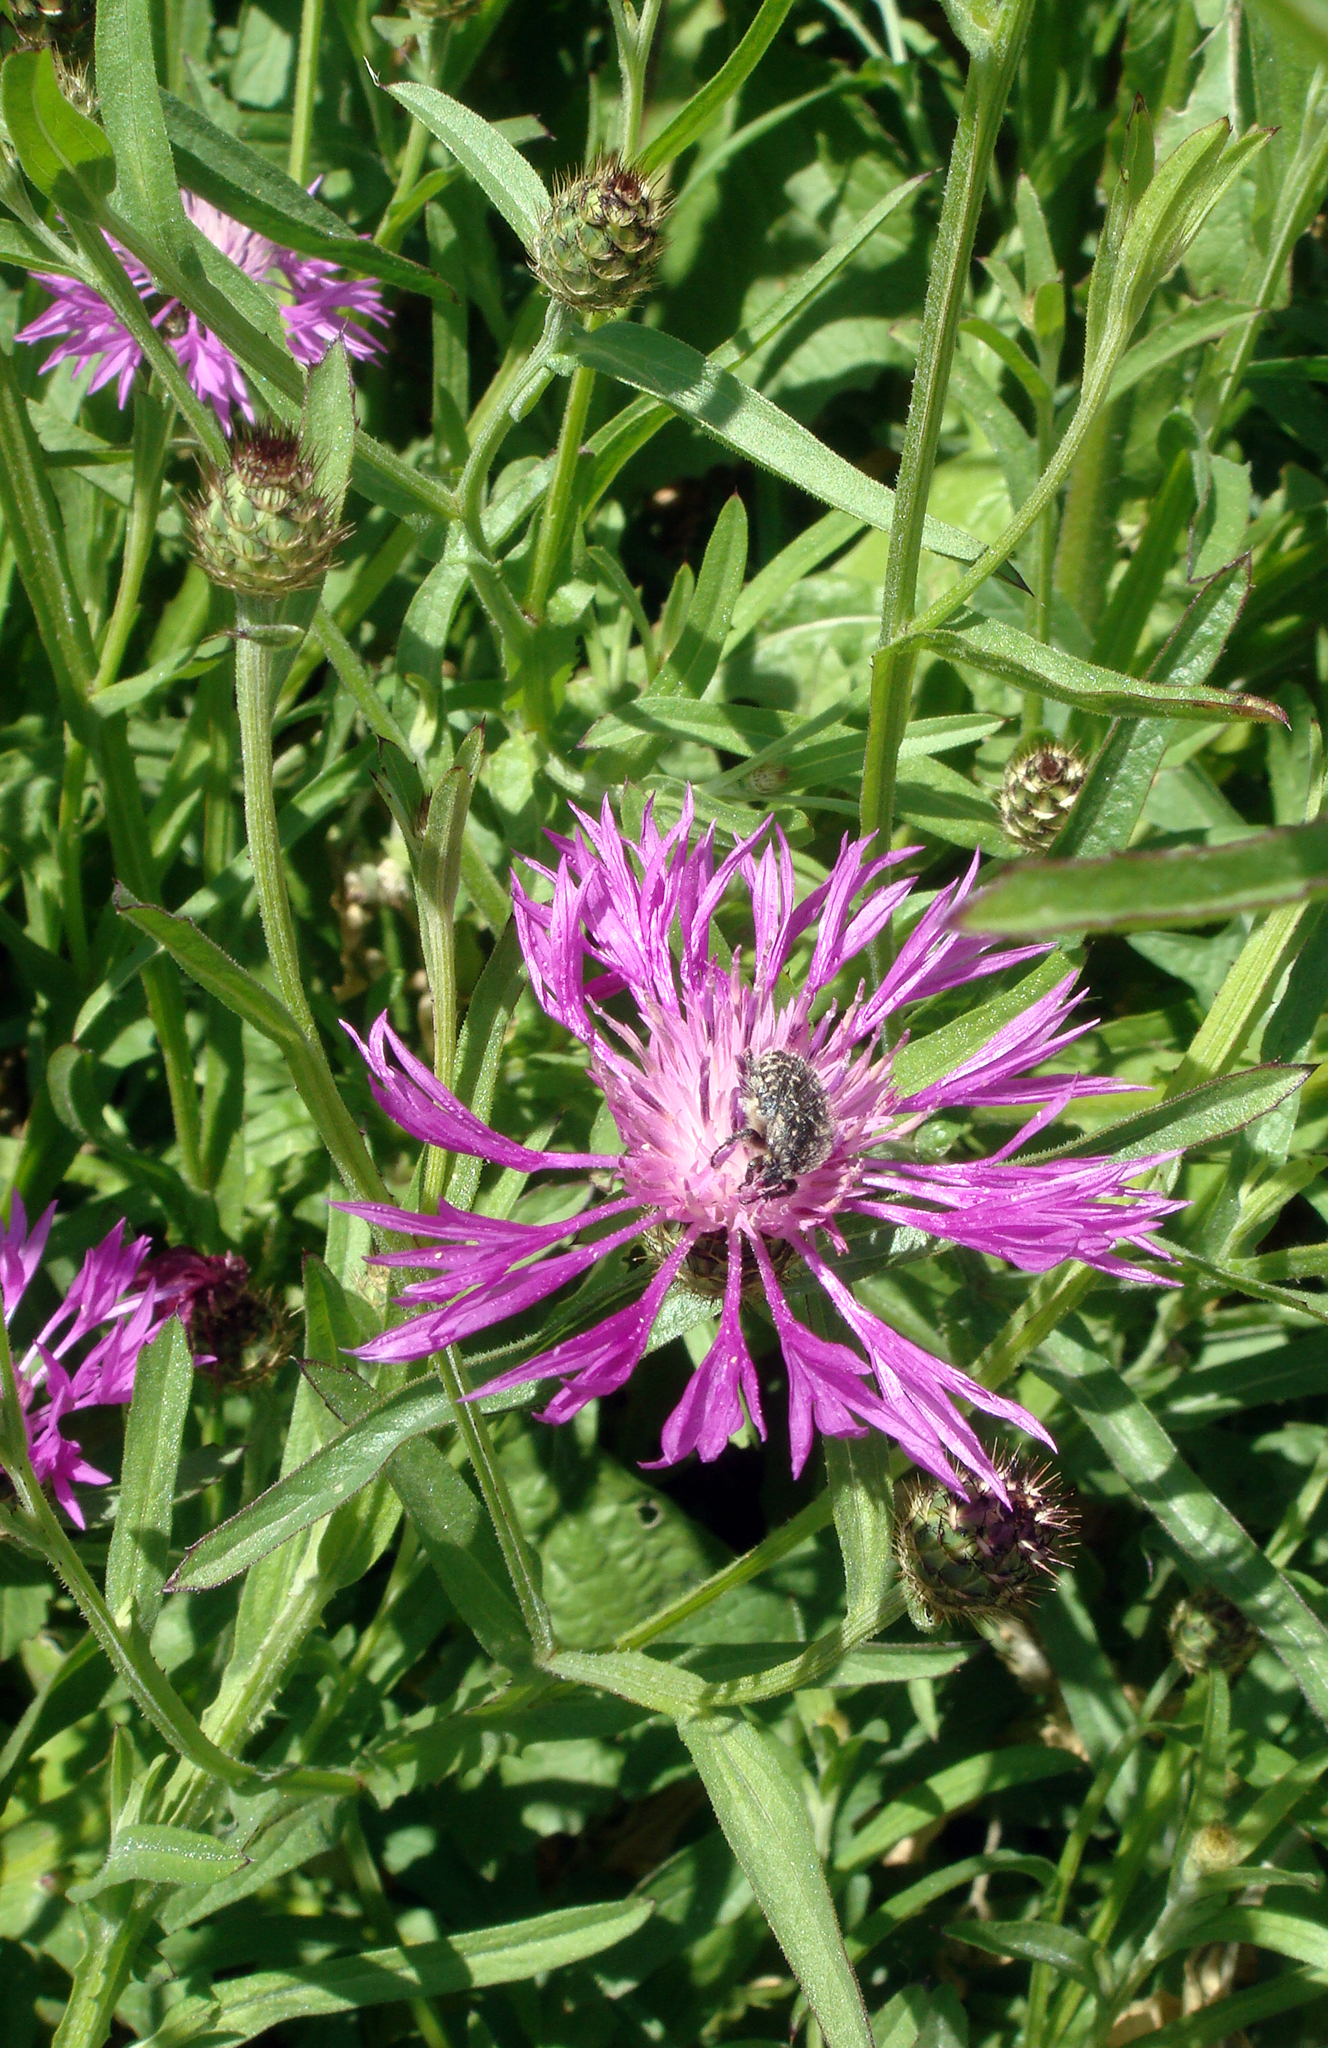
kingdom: Plantae
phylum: Tracheophyta
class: Magnoliopsida
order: Asterales
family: Asteraceae
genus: Centaurea
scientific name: Centaurea napifolia
